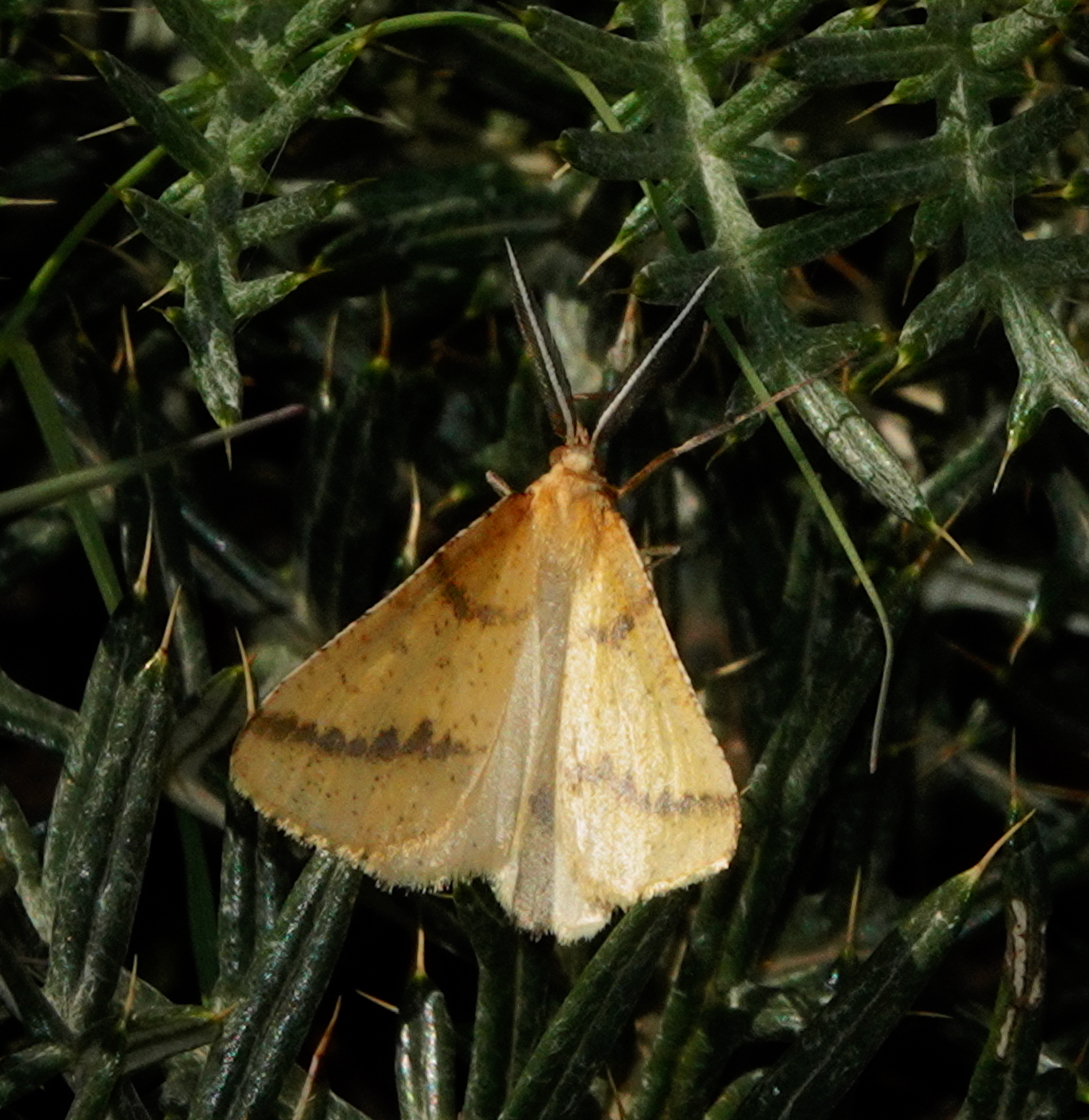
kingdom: Animalia
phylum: Arthropoda
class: Insecta
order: Lepidoptera
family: Geometridae
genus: Aspitates
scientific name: Aspitates ochrearia
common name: Yellow belle
